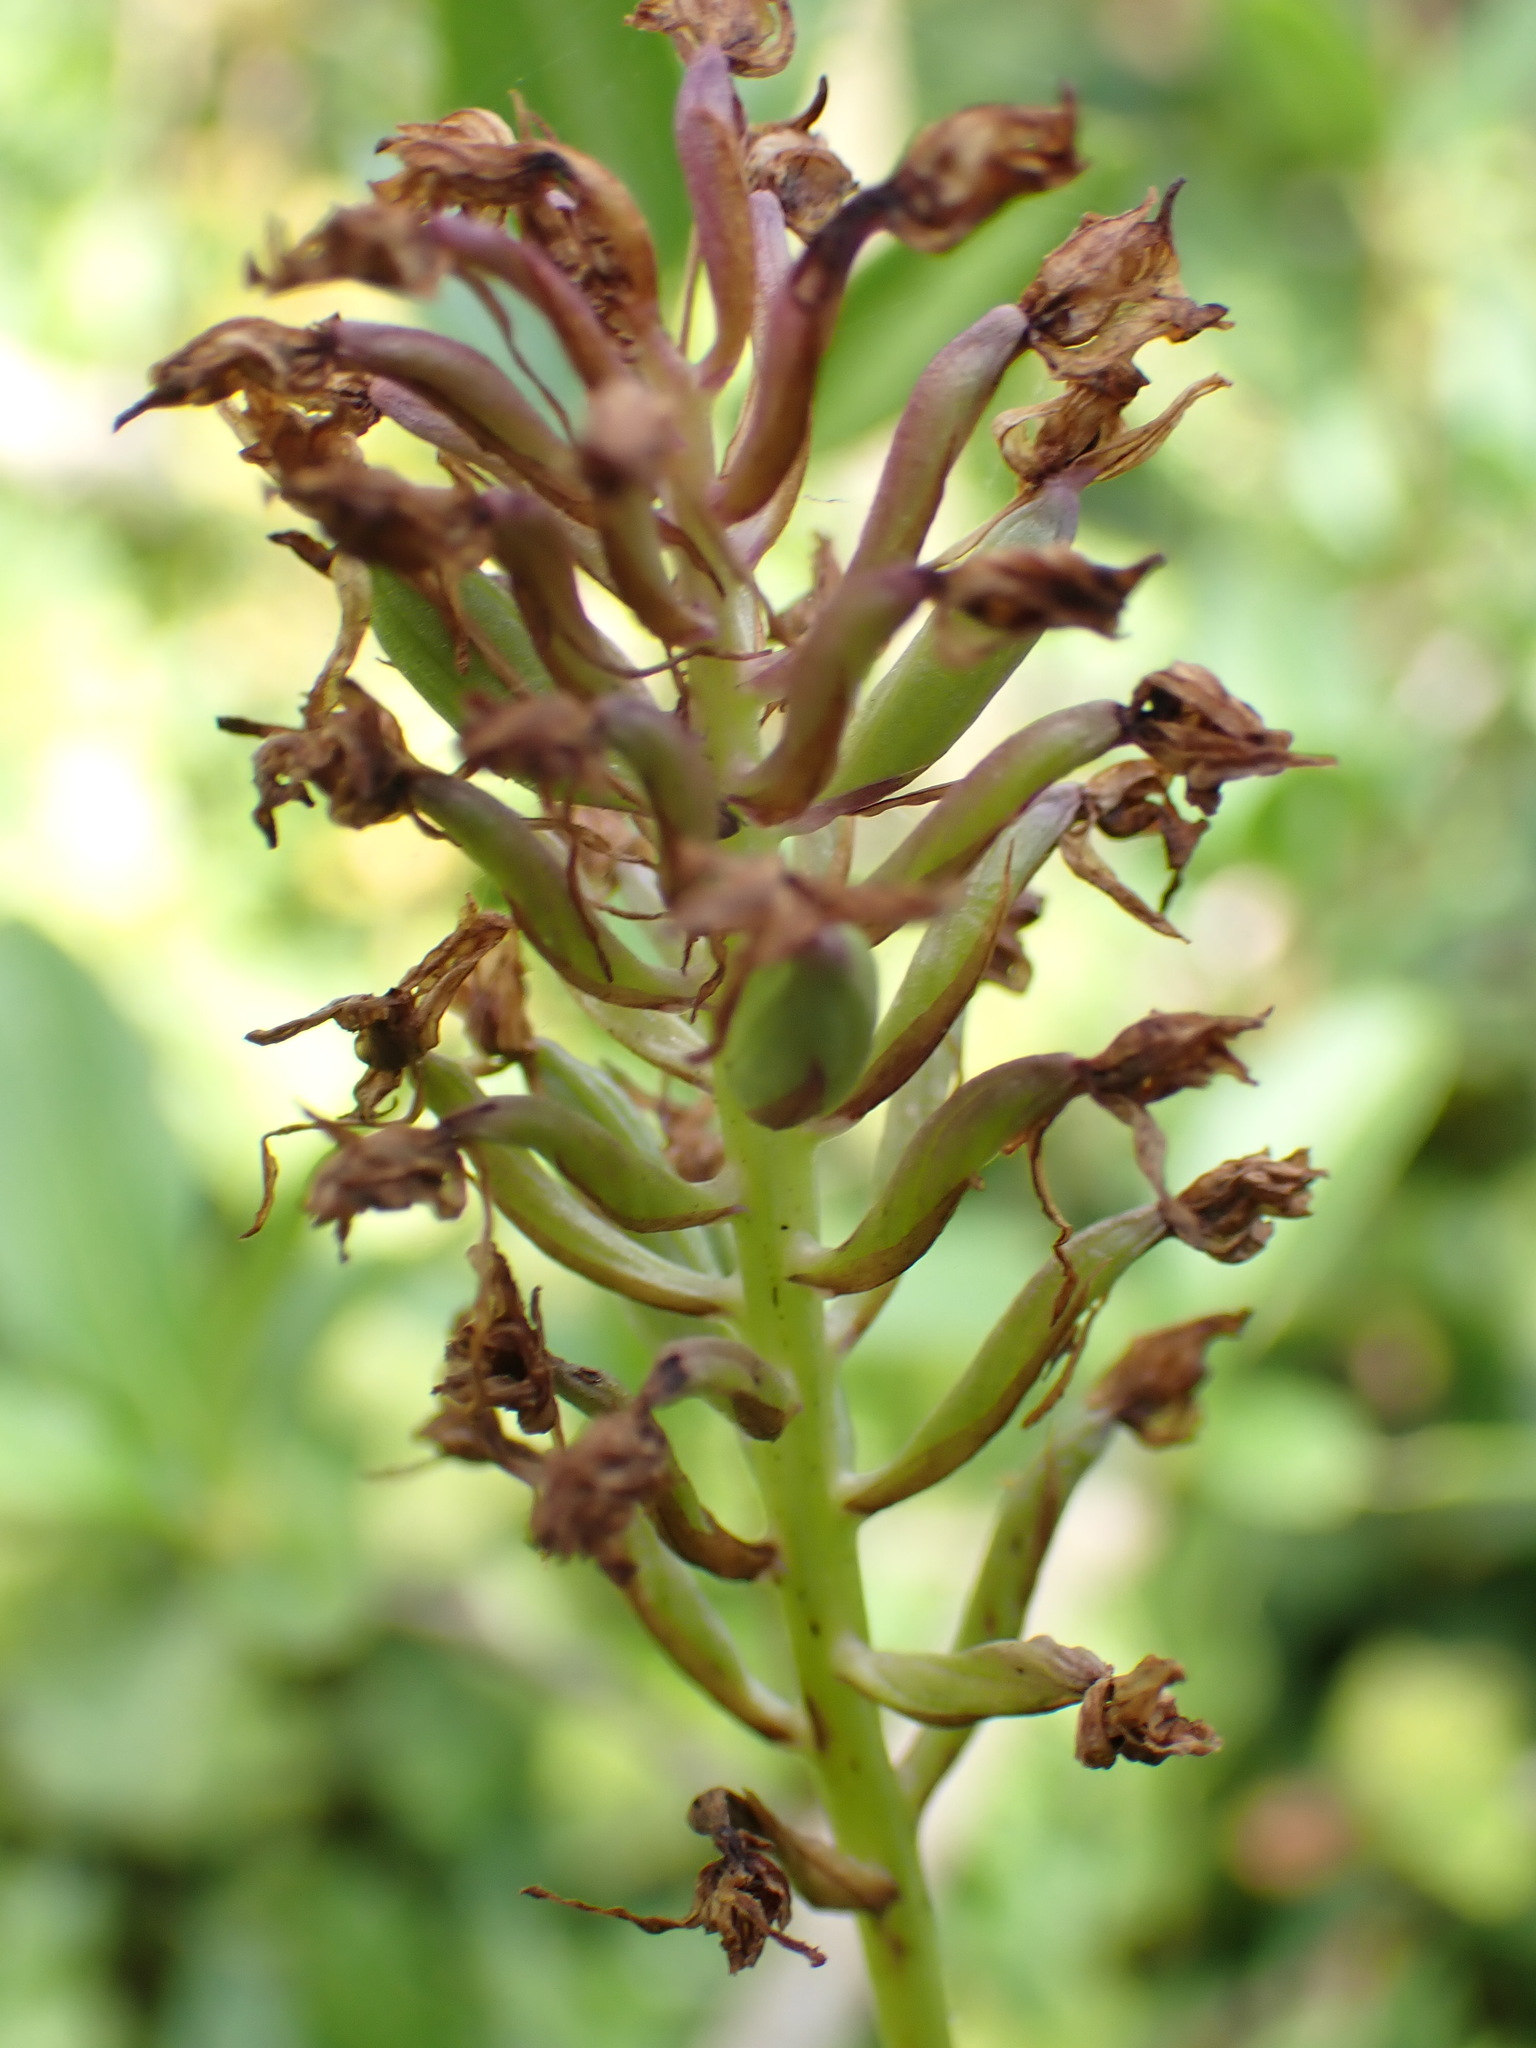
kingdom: Plantae
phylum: Tracheophyta
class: Liliopsida
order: Asparagales
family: Orchidaceae
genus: Anacamptis
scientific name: Anacamptis pyramidalis
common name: Pyramidal orchid
